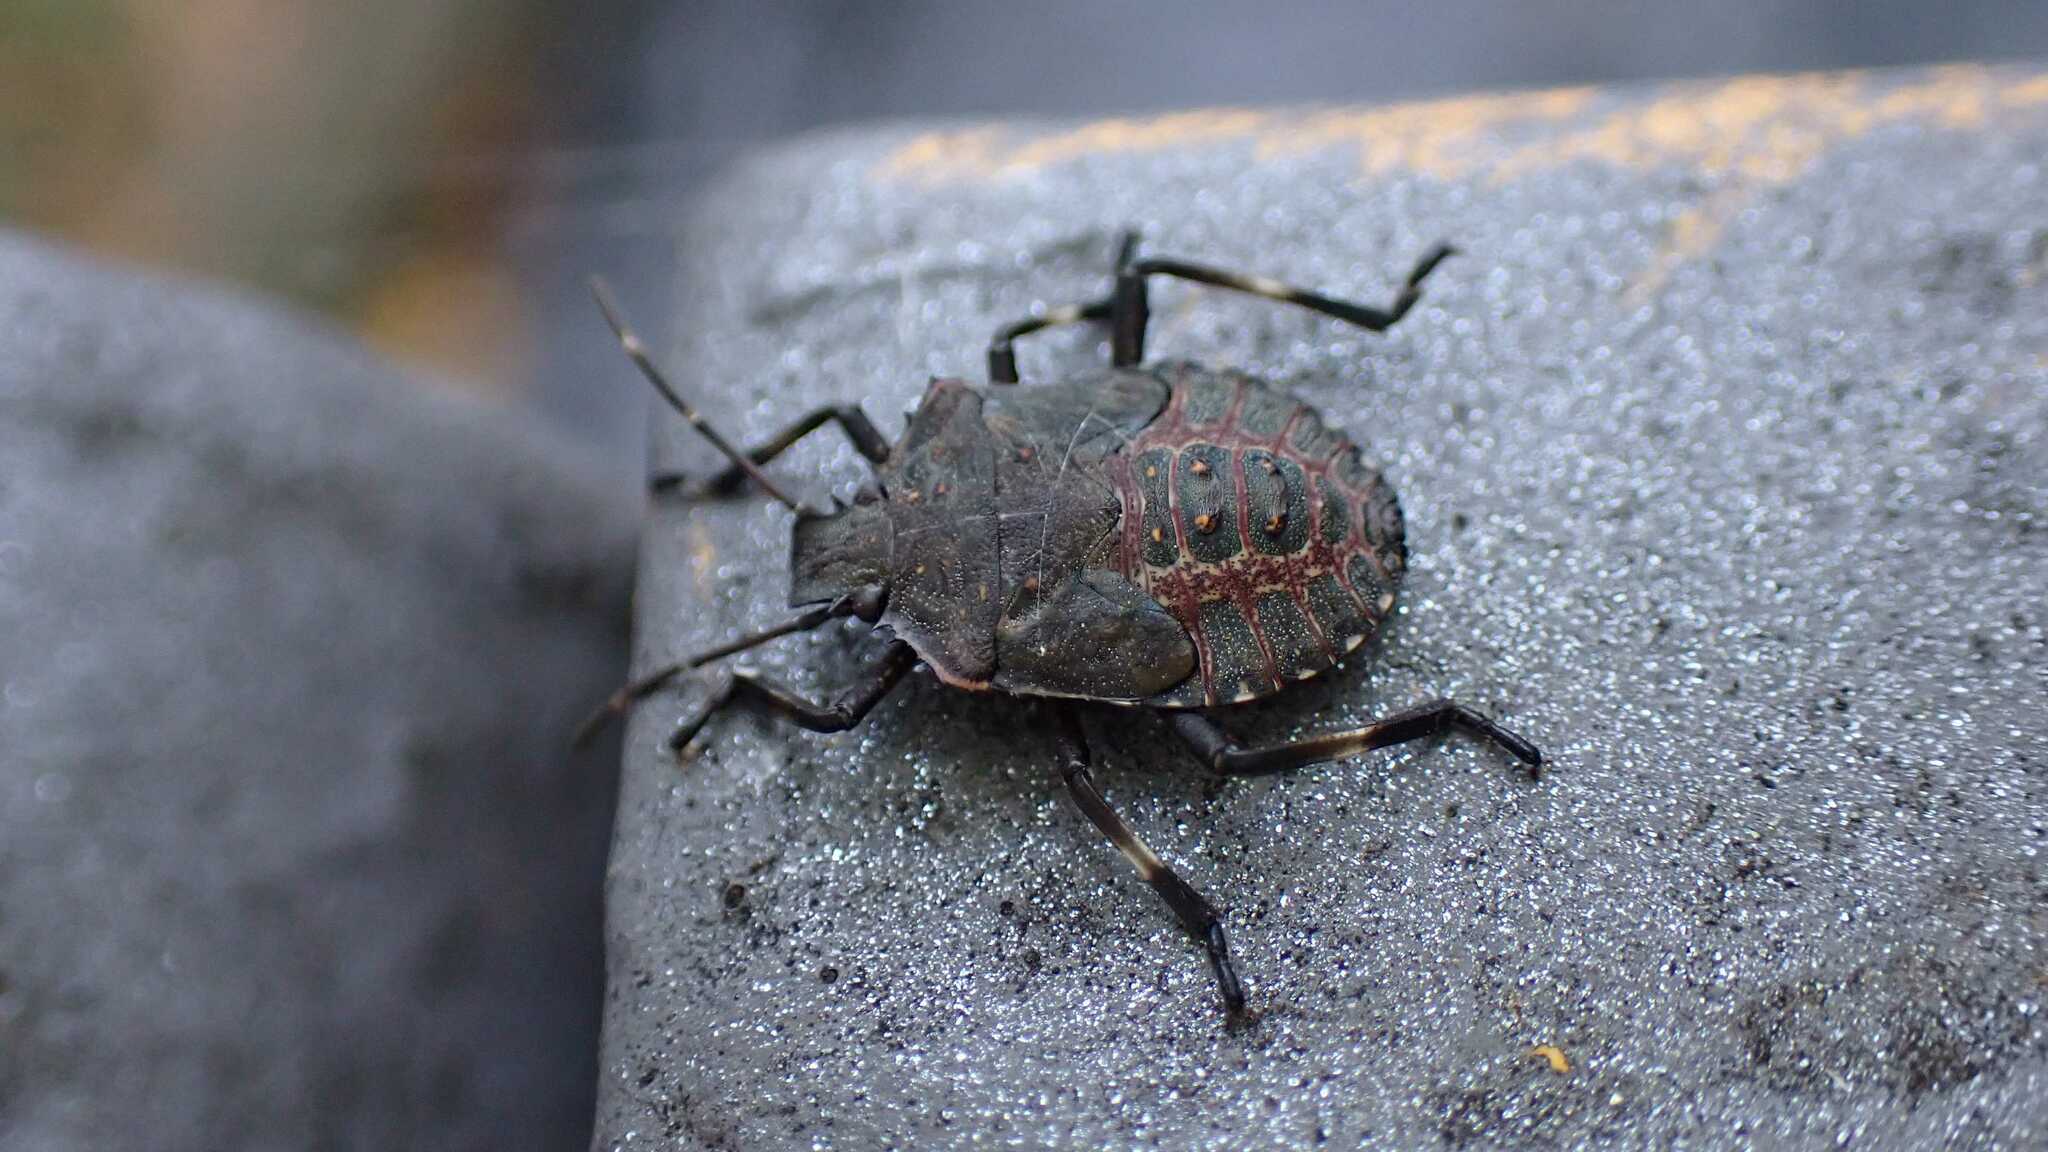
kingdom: Animalia
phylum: Arthropoda
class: Insecta
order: Hemiptera
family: Pentatomidae
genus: Halyomorpha
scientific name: Halyomorpha halys
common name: Brown marmorated stink bug
